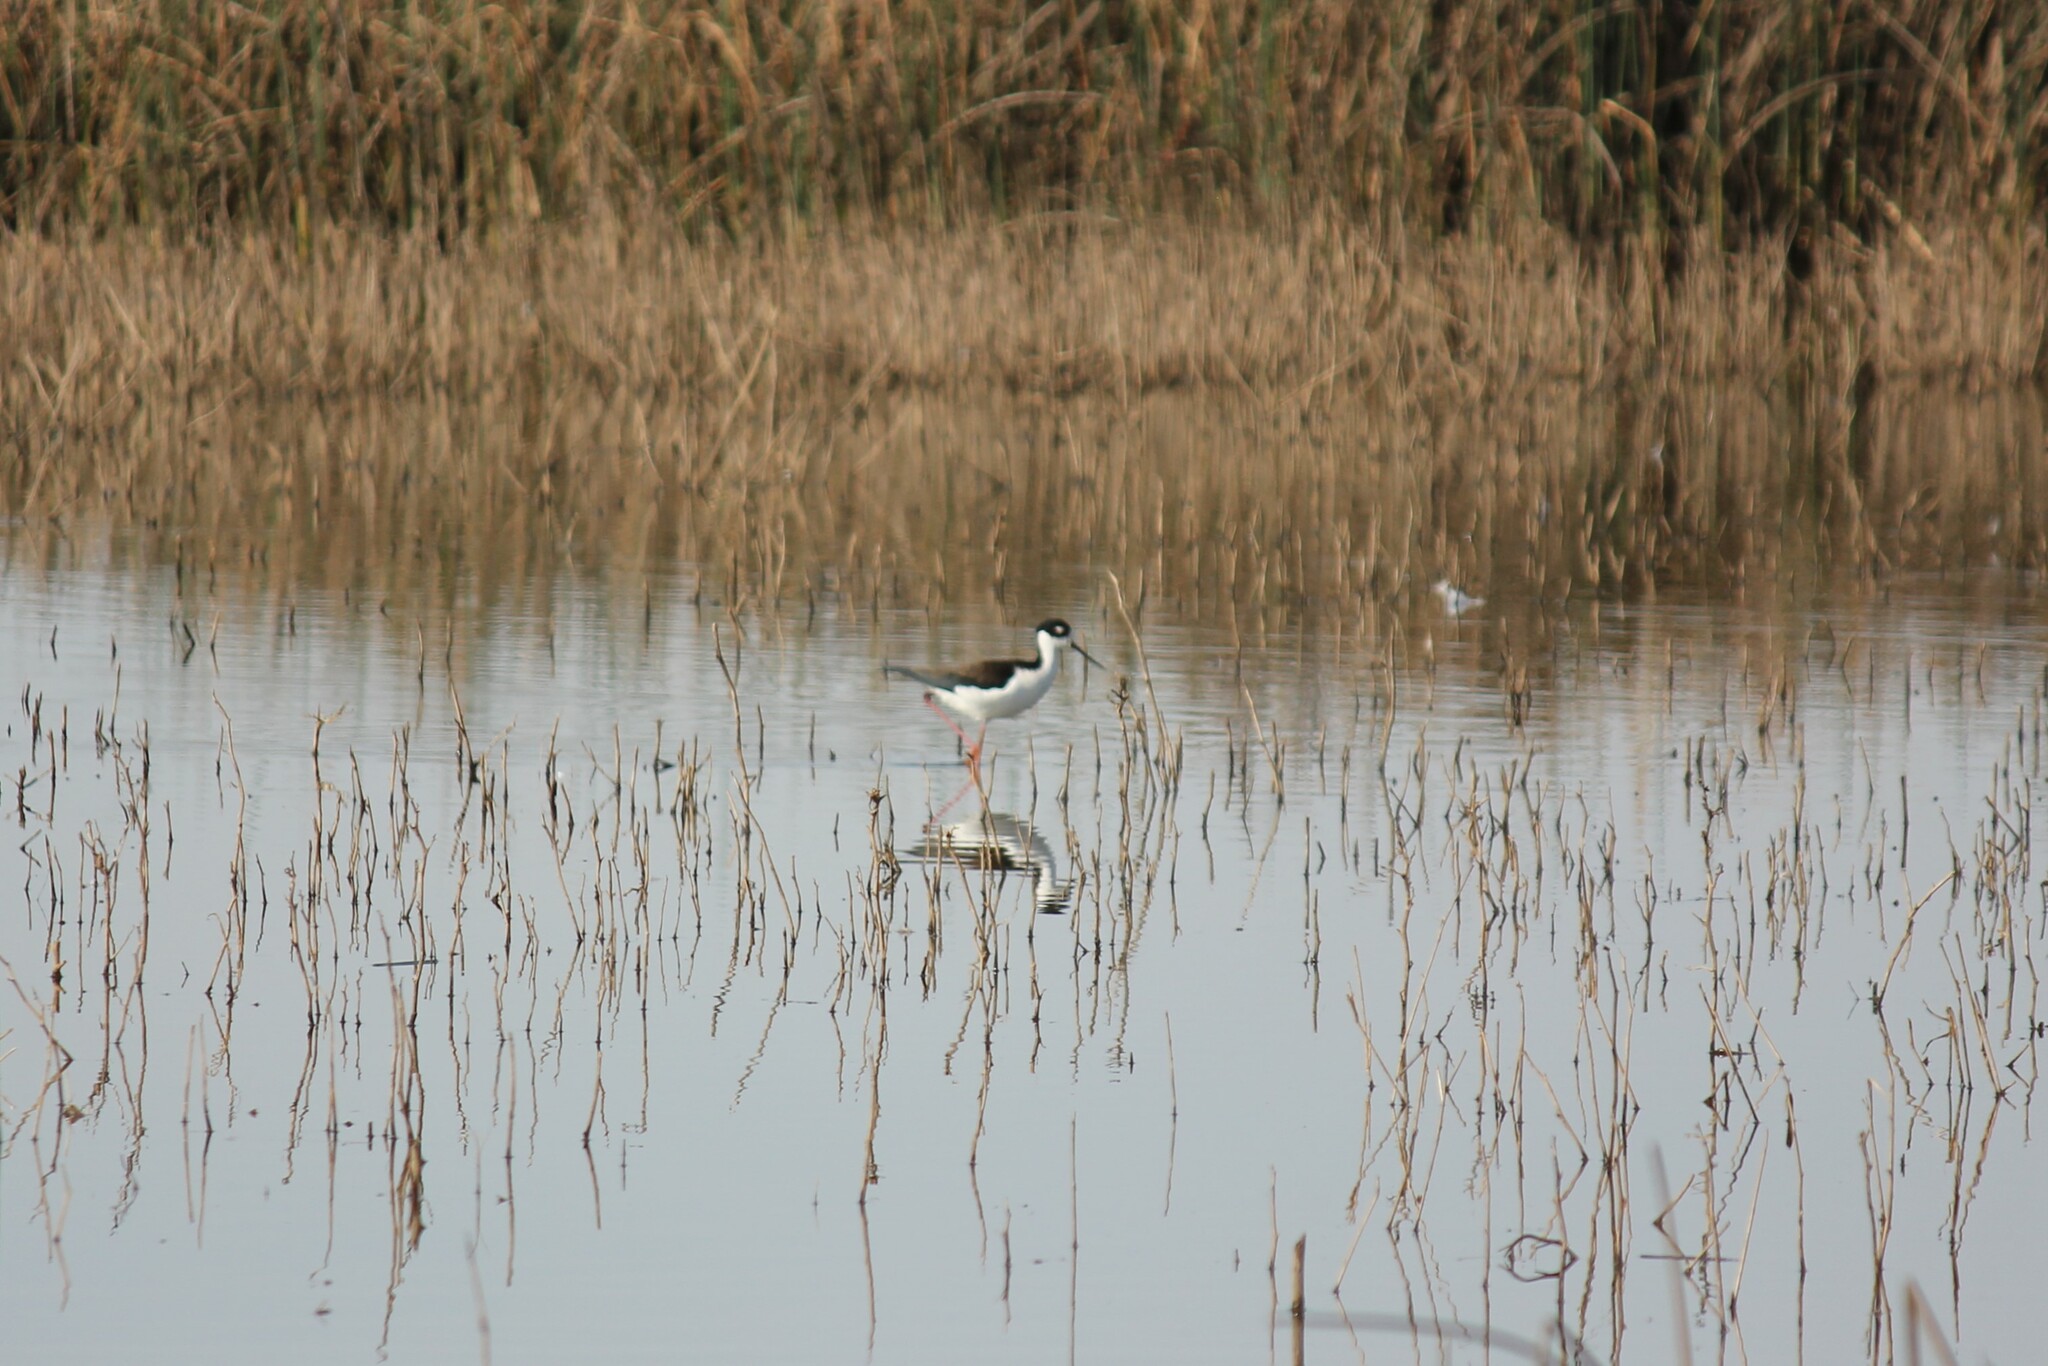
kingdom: Animalia
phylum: Chordata
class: Aves
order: Charadriiformes
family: Recurvirostridae
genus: Himantopus
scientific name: Himantopus mexicanus
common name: Black-necked stilt
